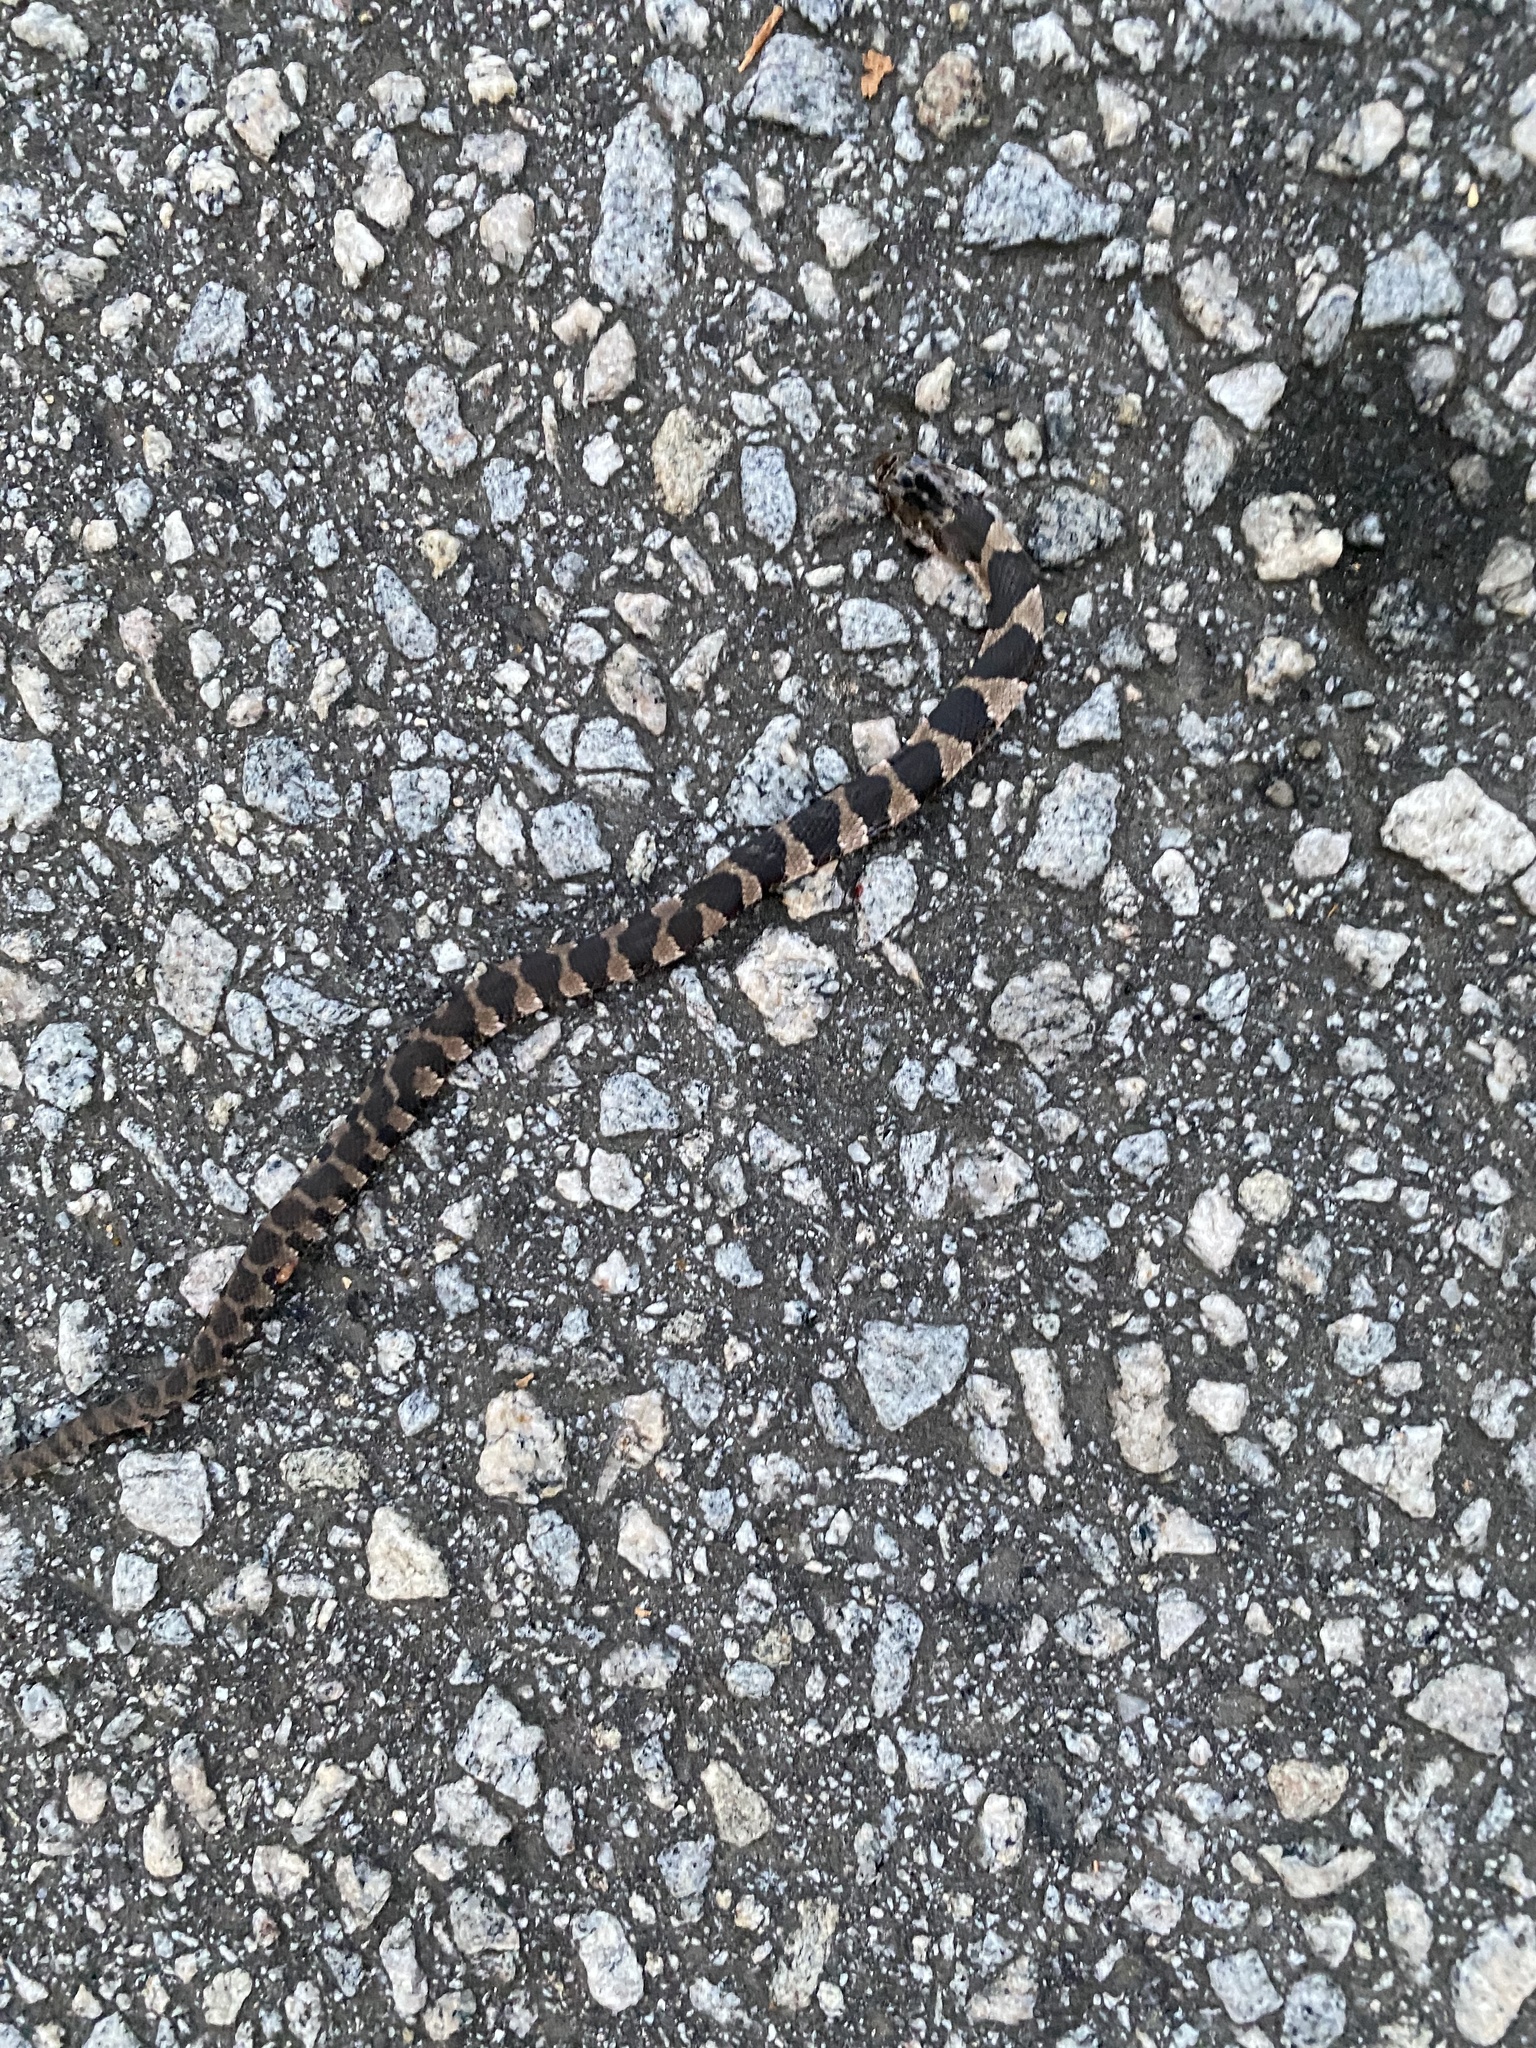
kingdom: Animalia
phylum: Chordata
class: Squamata
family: Colubridae
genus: Nerodia
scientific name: Nerodia sipedon
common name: Northern water snake
